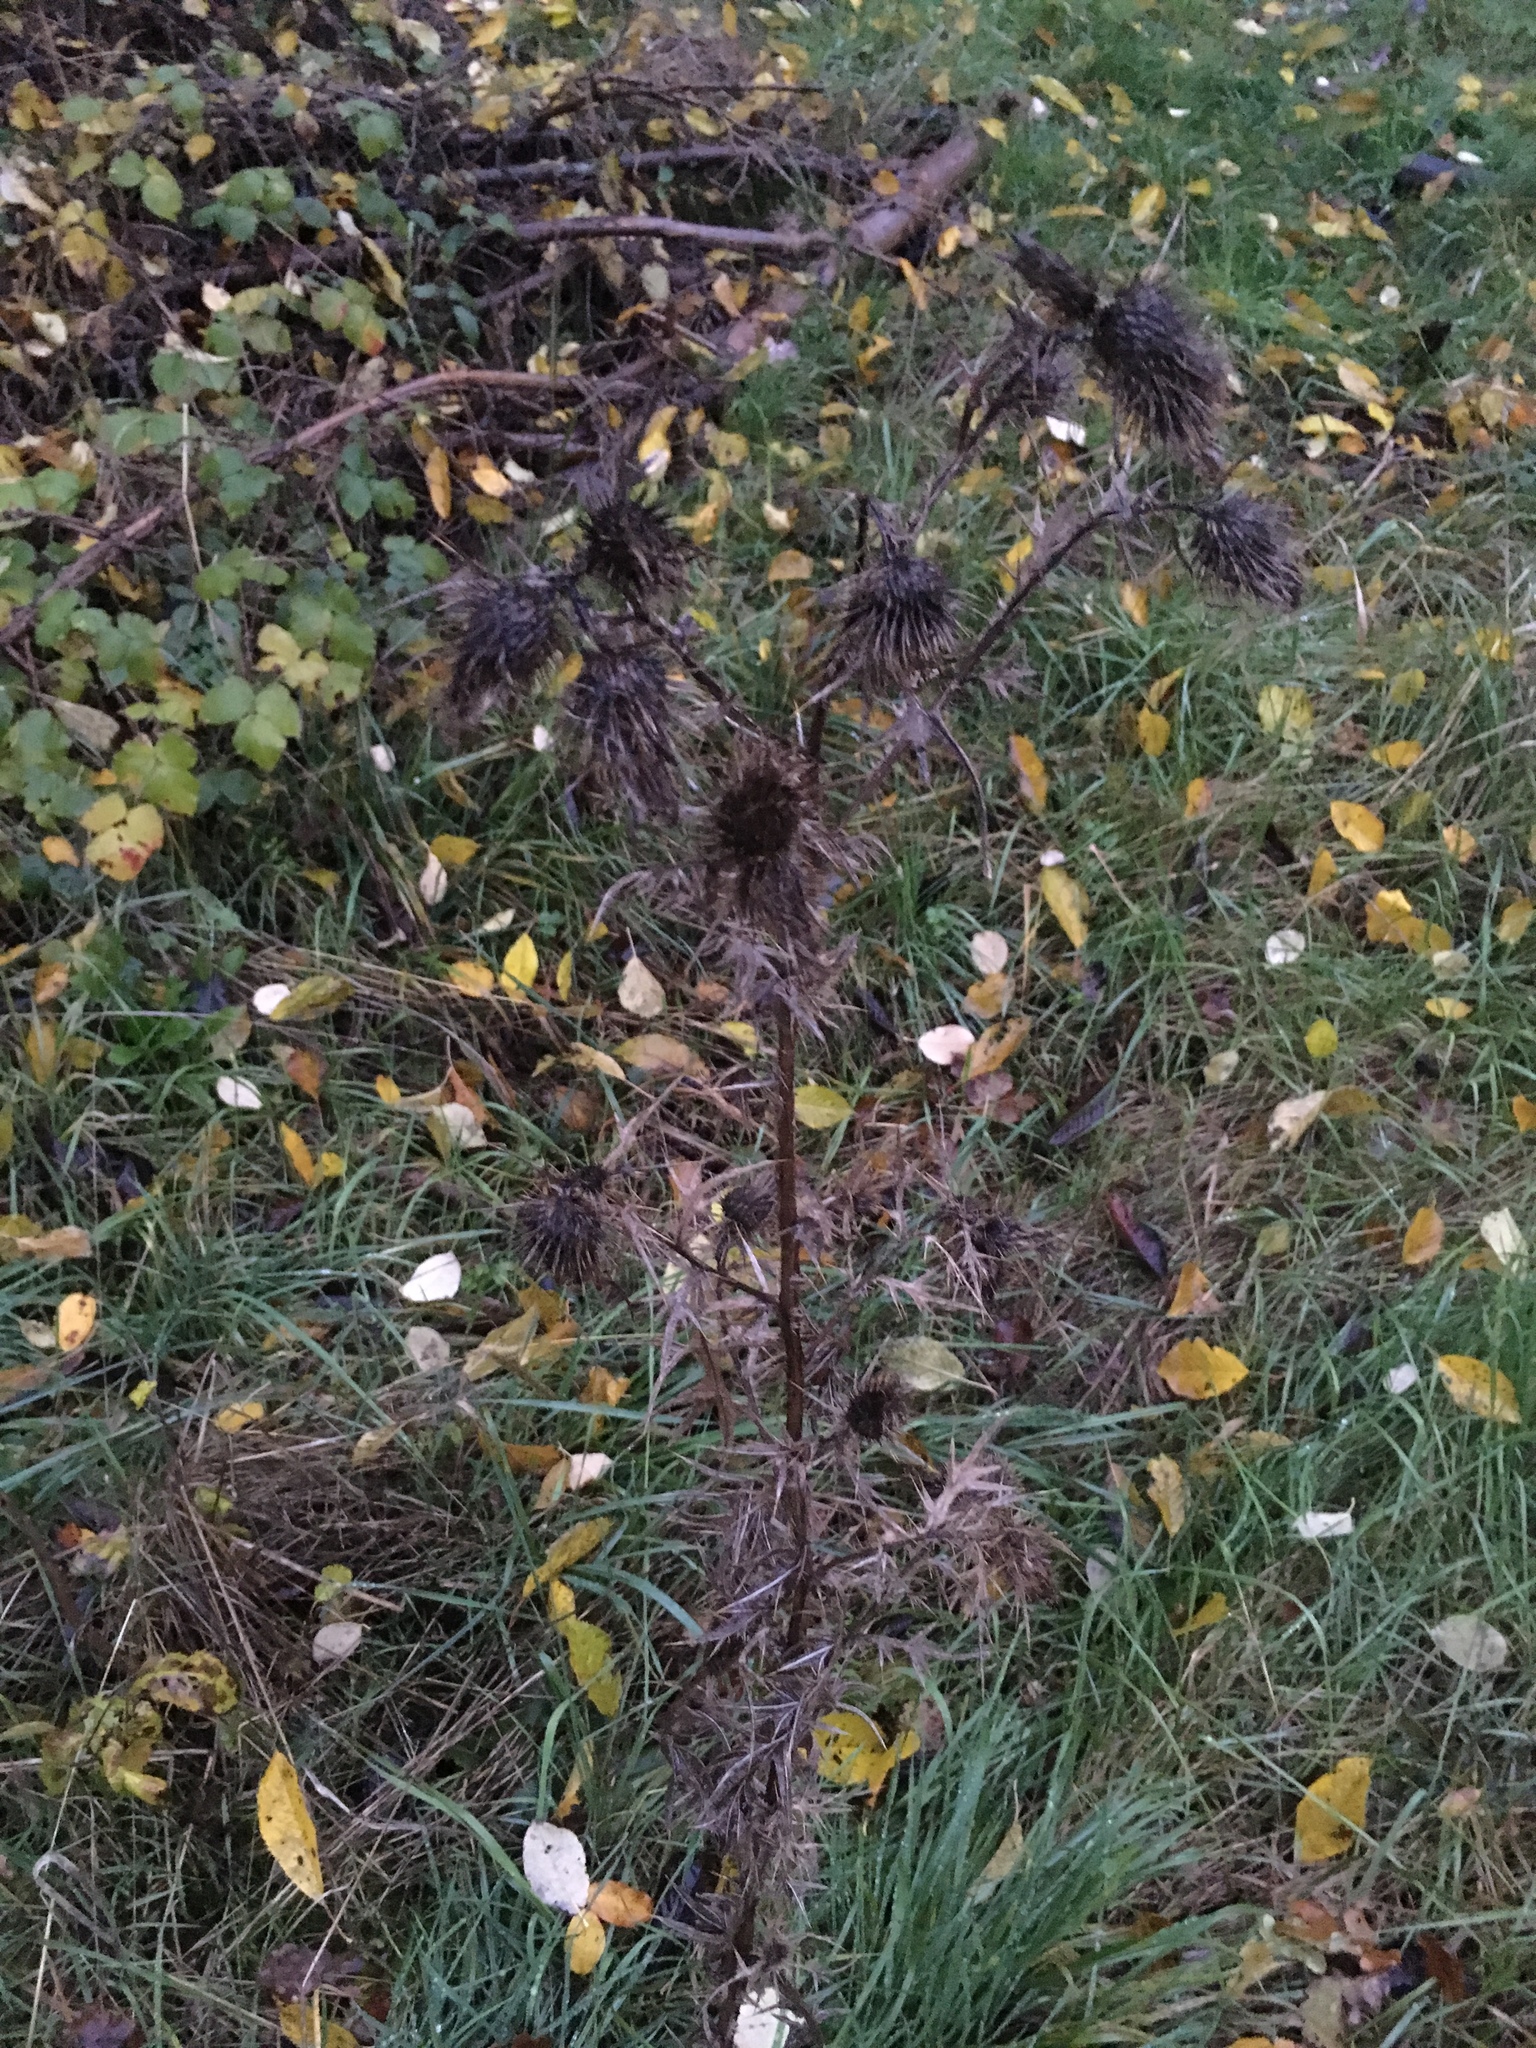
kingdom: Plantae
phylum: Tracheophyta
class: Magnoliopsida
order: Asterales
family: Asteraceae
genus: Cirsium
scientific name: Cirsium vulgare
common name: Bull thistle
